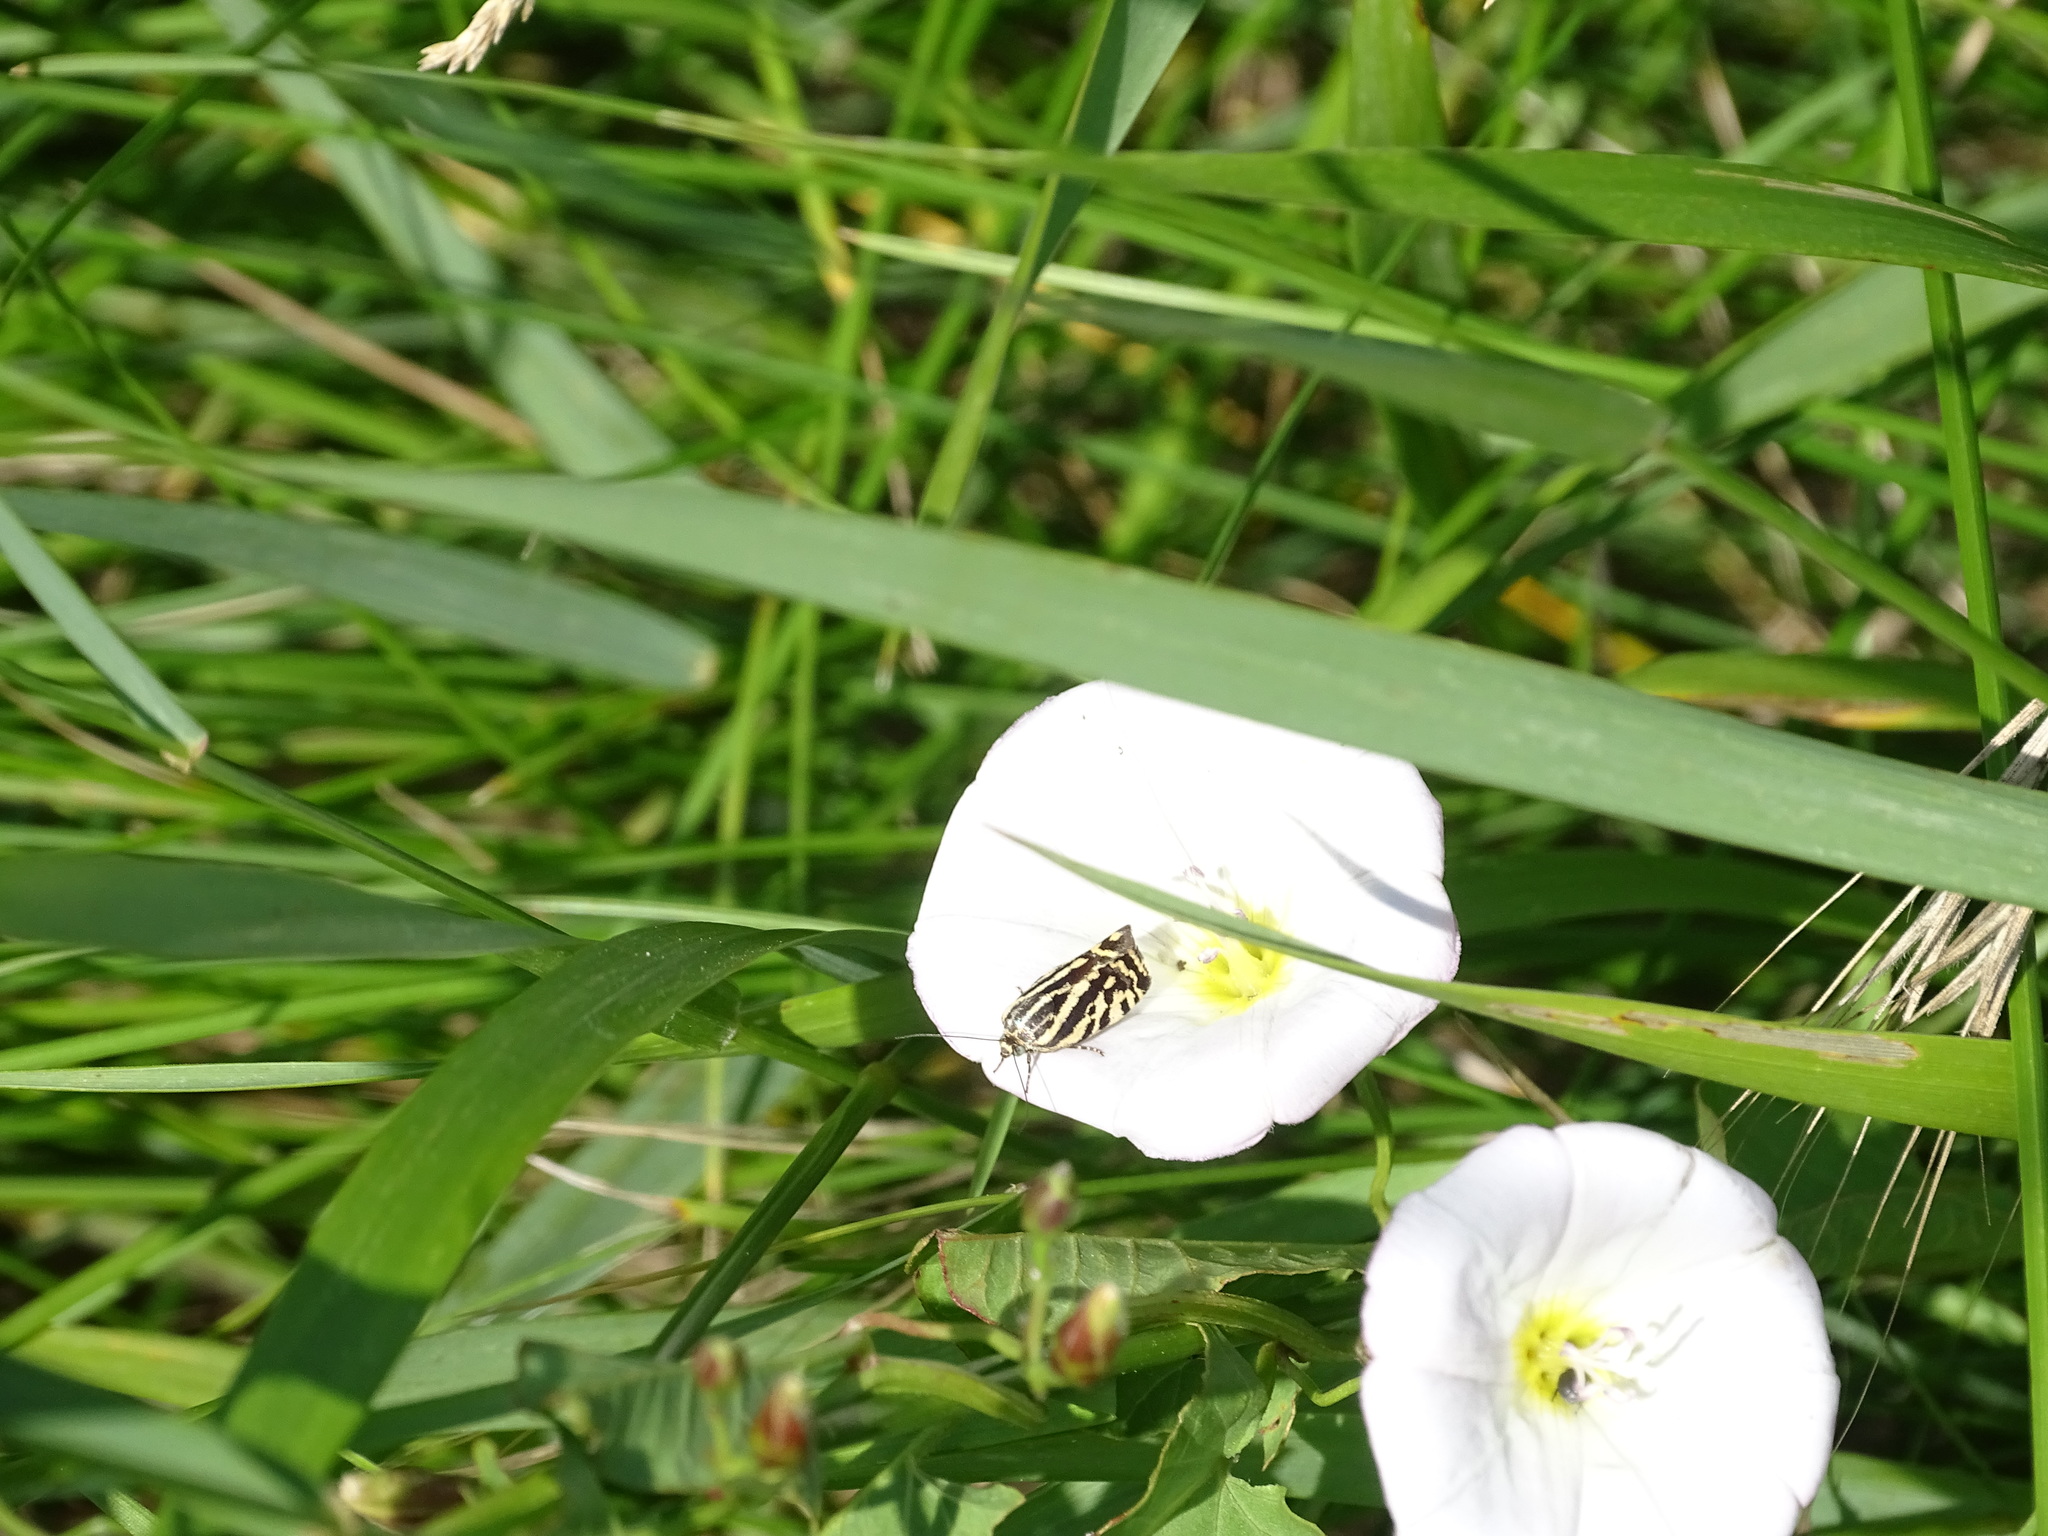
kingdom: Animalia
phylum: Arthropoda
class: Insecta
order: Lepidoptera
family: Noctuidae
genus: Acontia
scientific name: Acontia trabealis
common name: Spotted sulphur
